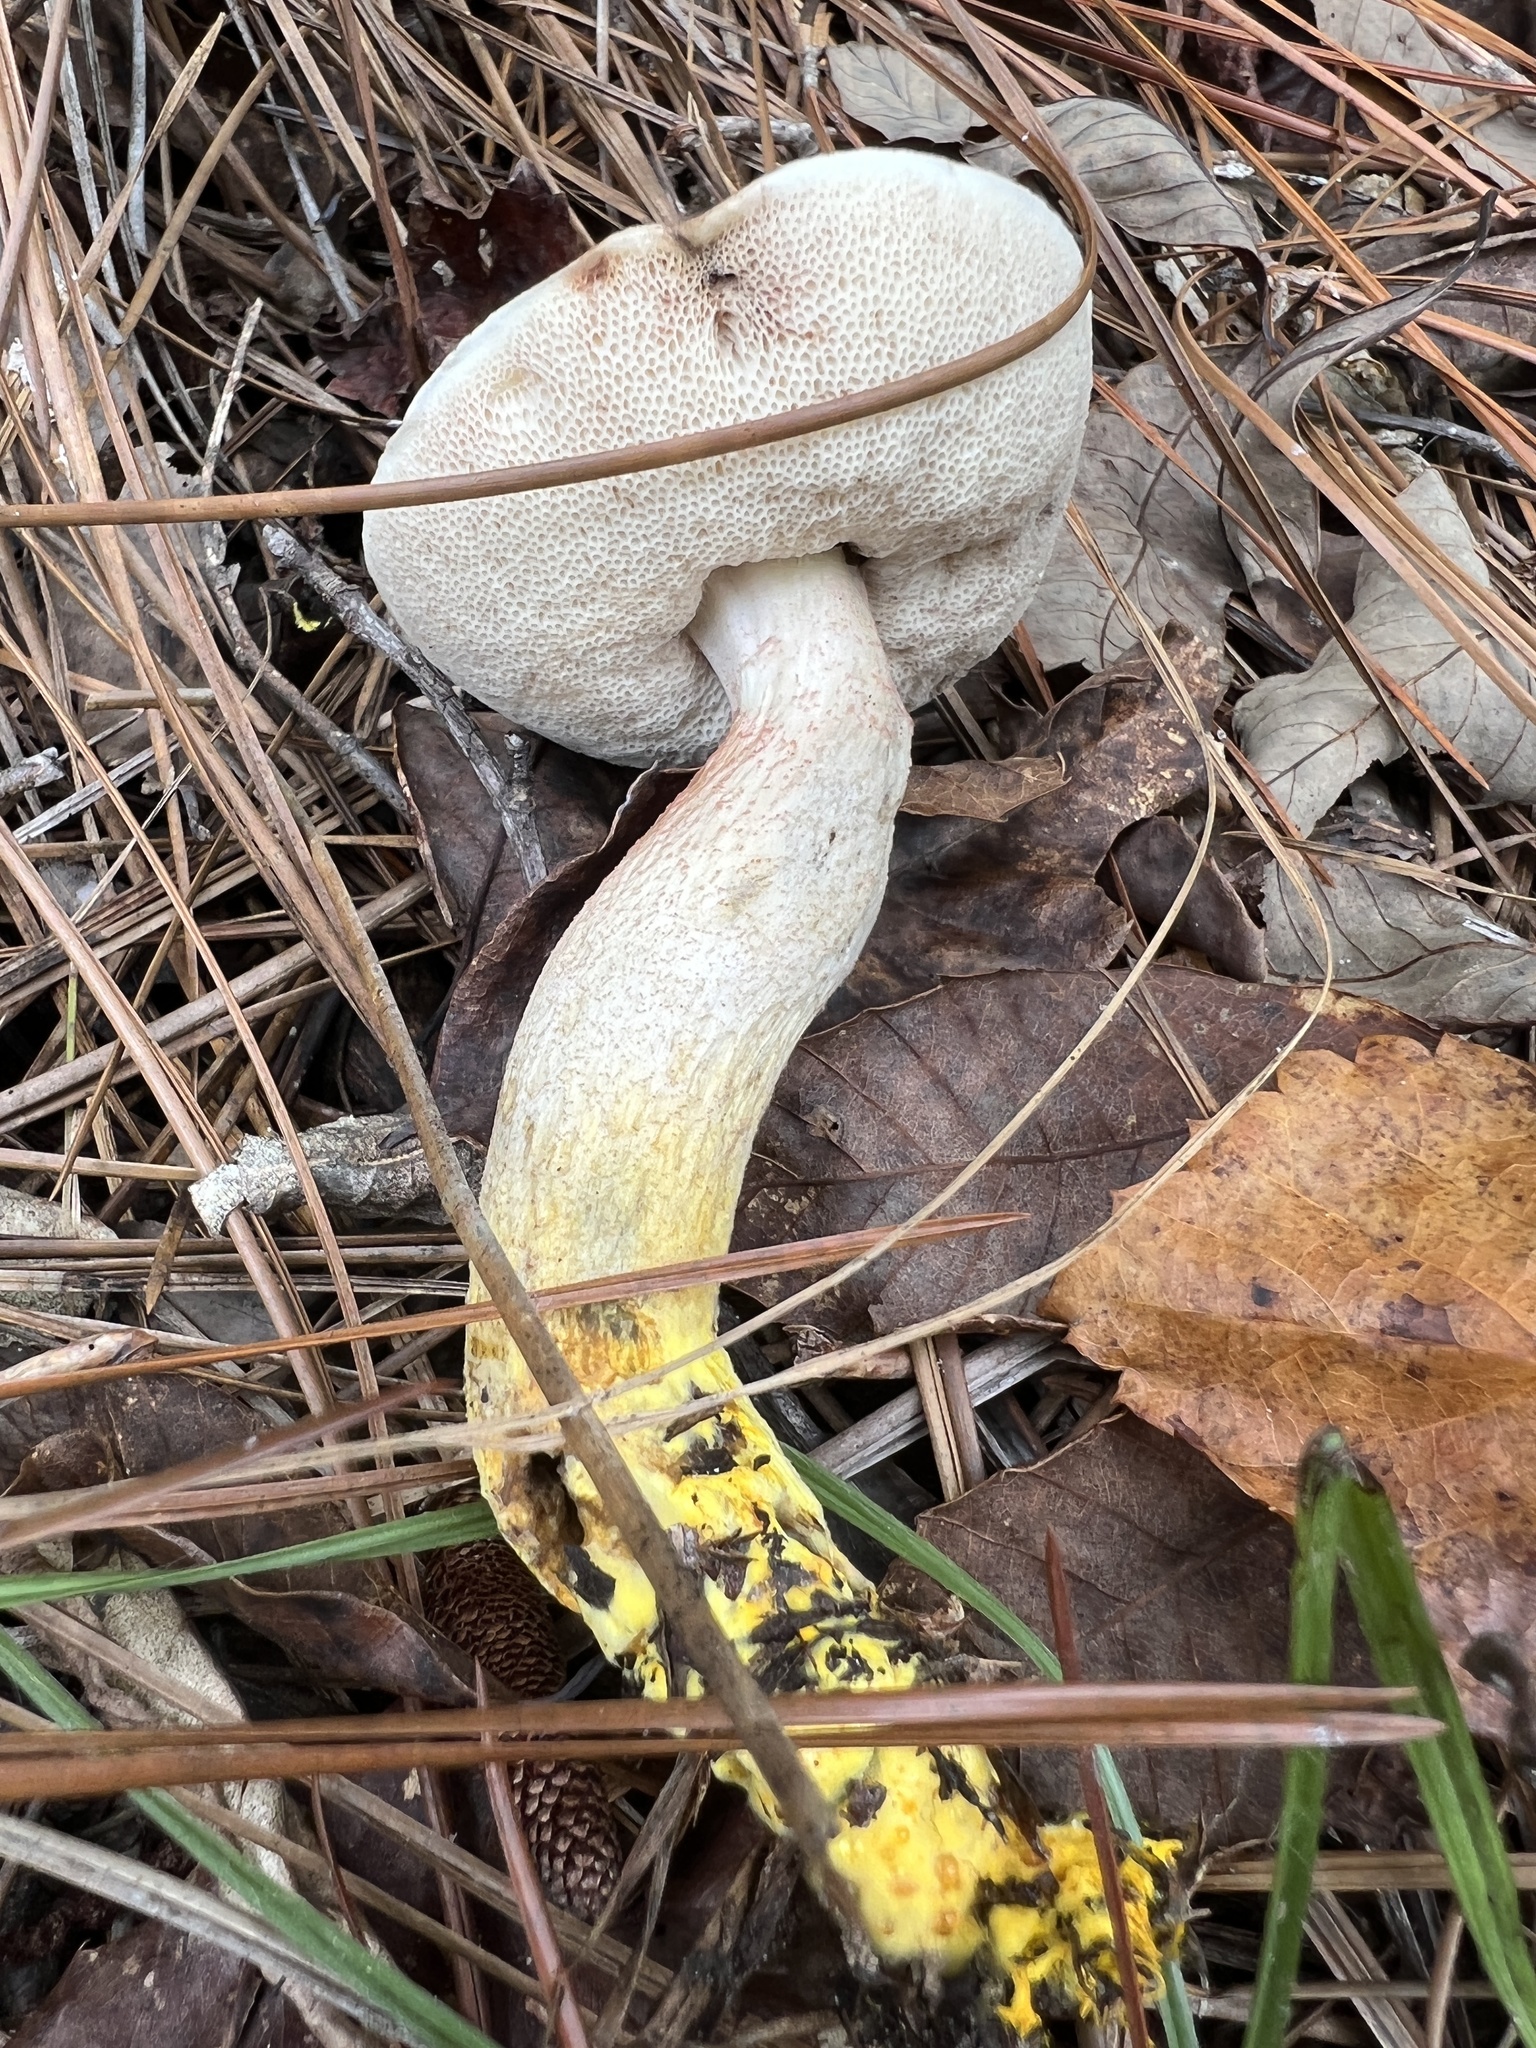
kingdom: Fungi
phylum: Basidiomycota
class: Agaricomycetes
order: Boletales
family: Boletaceae
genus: Harrya
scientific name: Harrya chromipes
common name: Chrome-footed bolete
